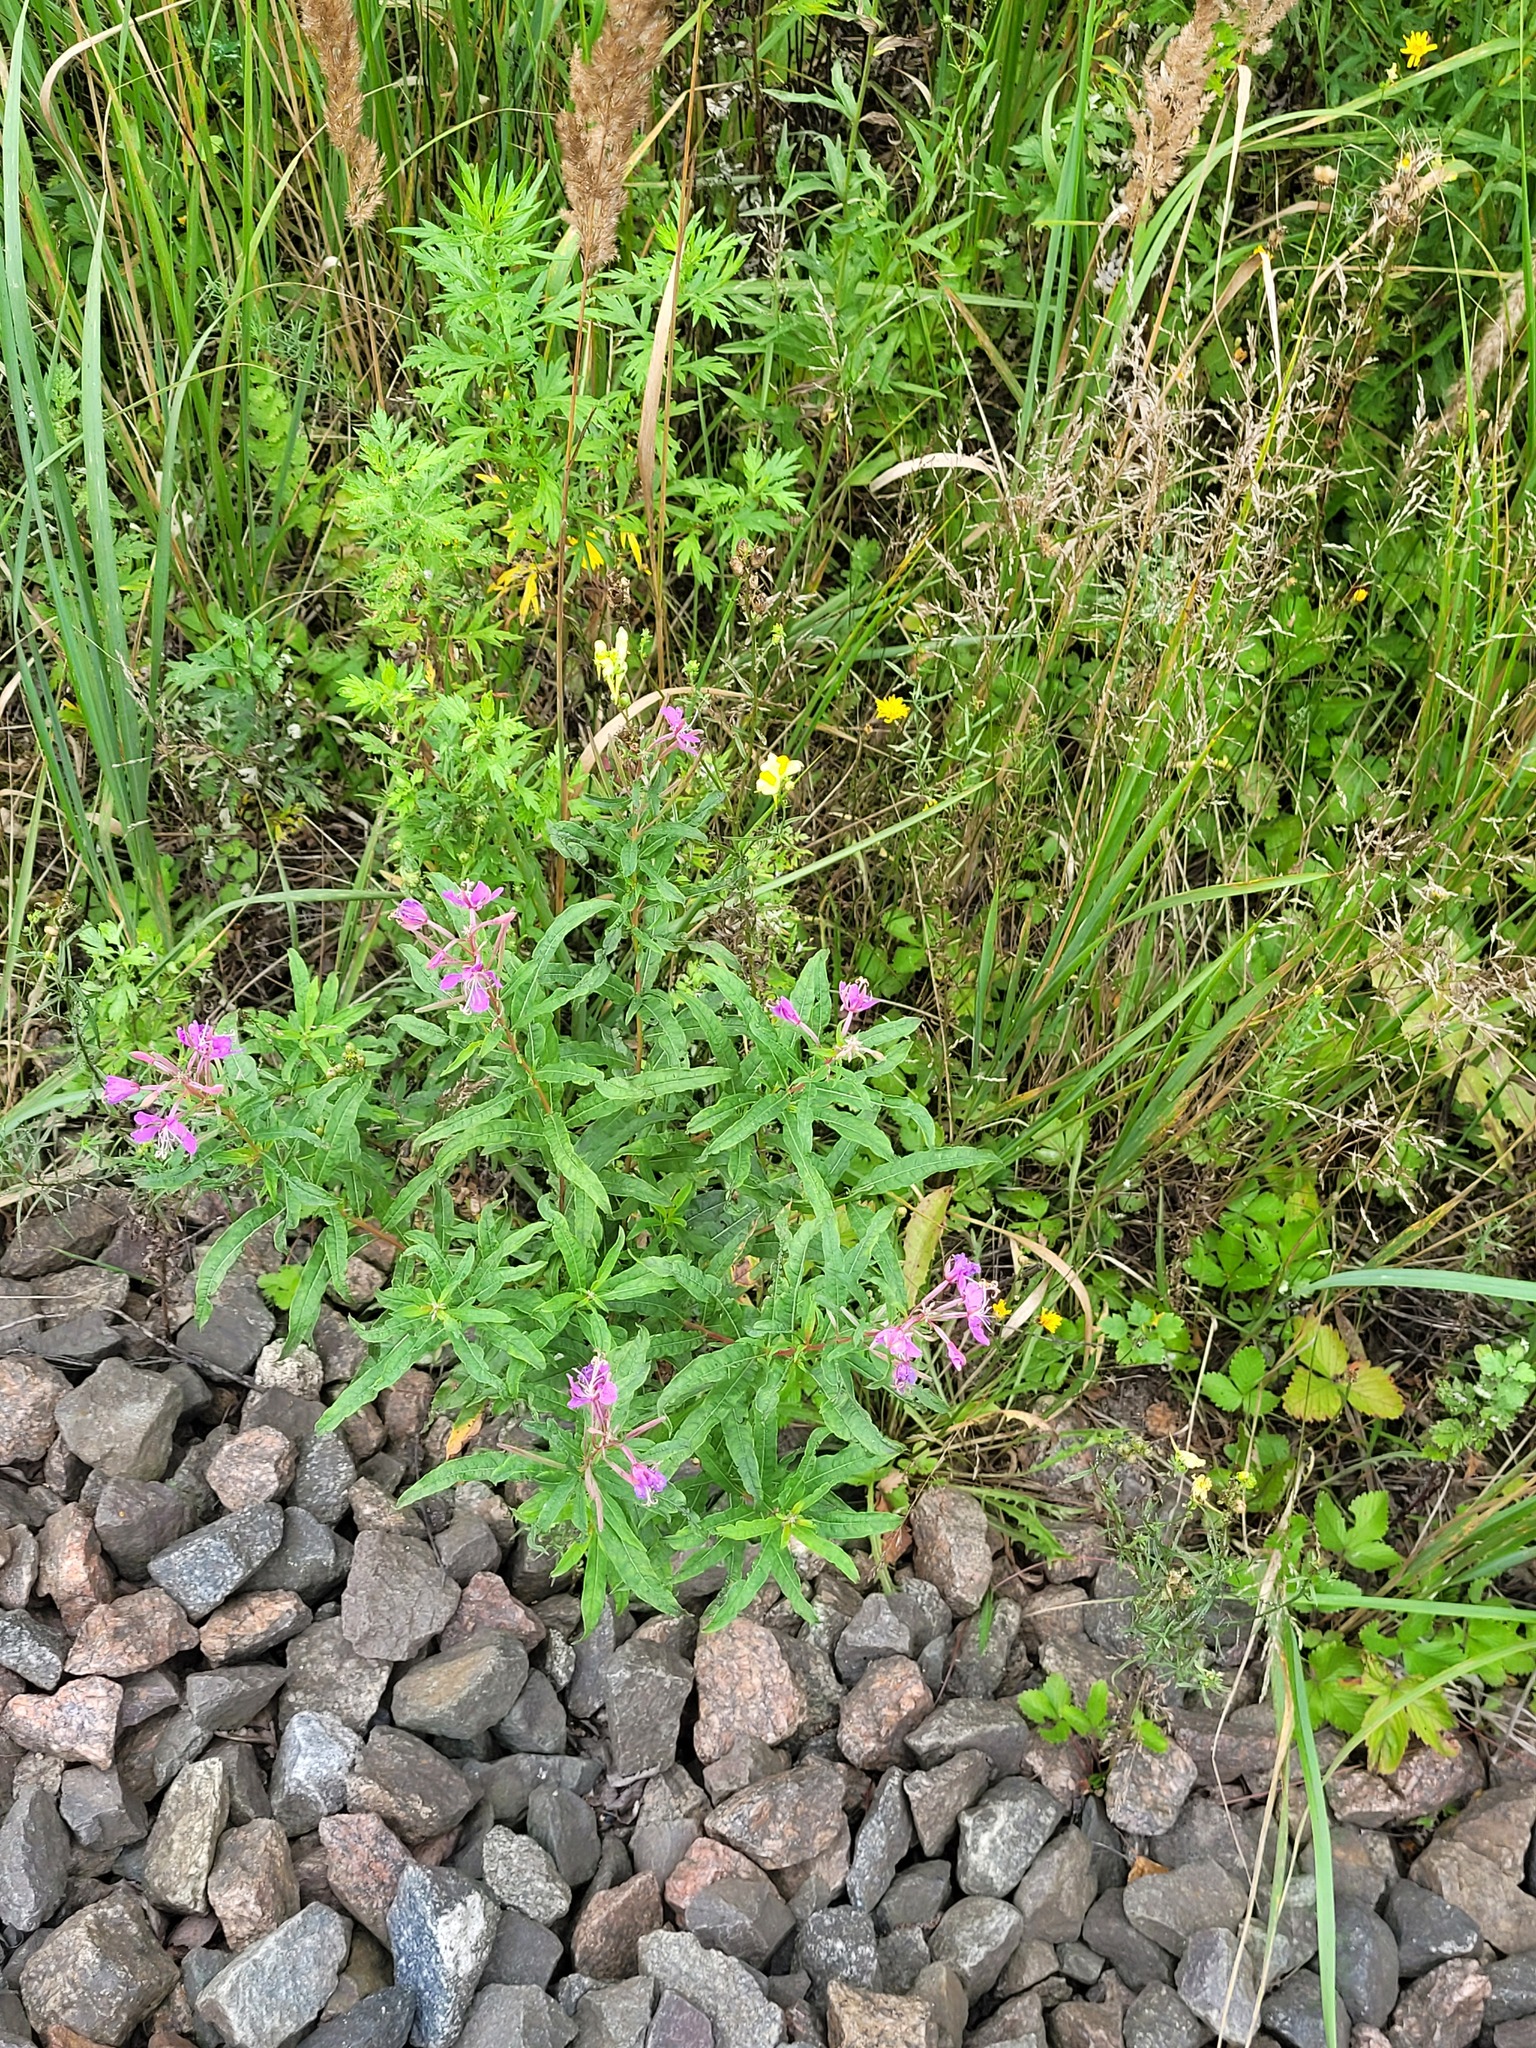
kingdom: Plantae
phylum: Tracheophyta
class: Magnoliopsida
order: Myrtales
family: Onagraceae
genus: Chamaenerion
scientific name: Chamaenerion angustifolium
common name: Fireweed
